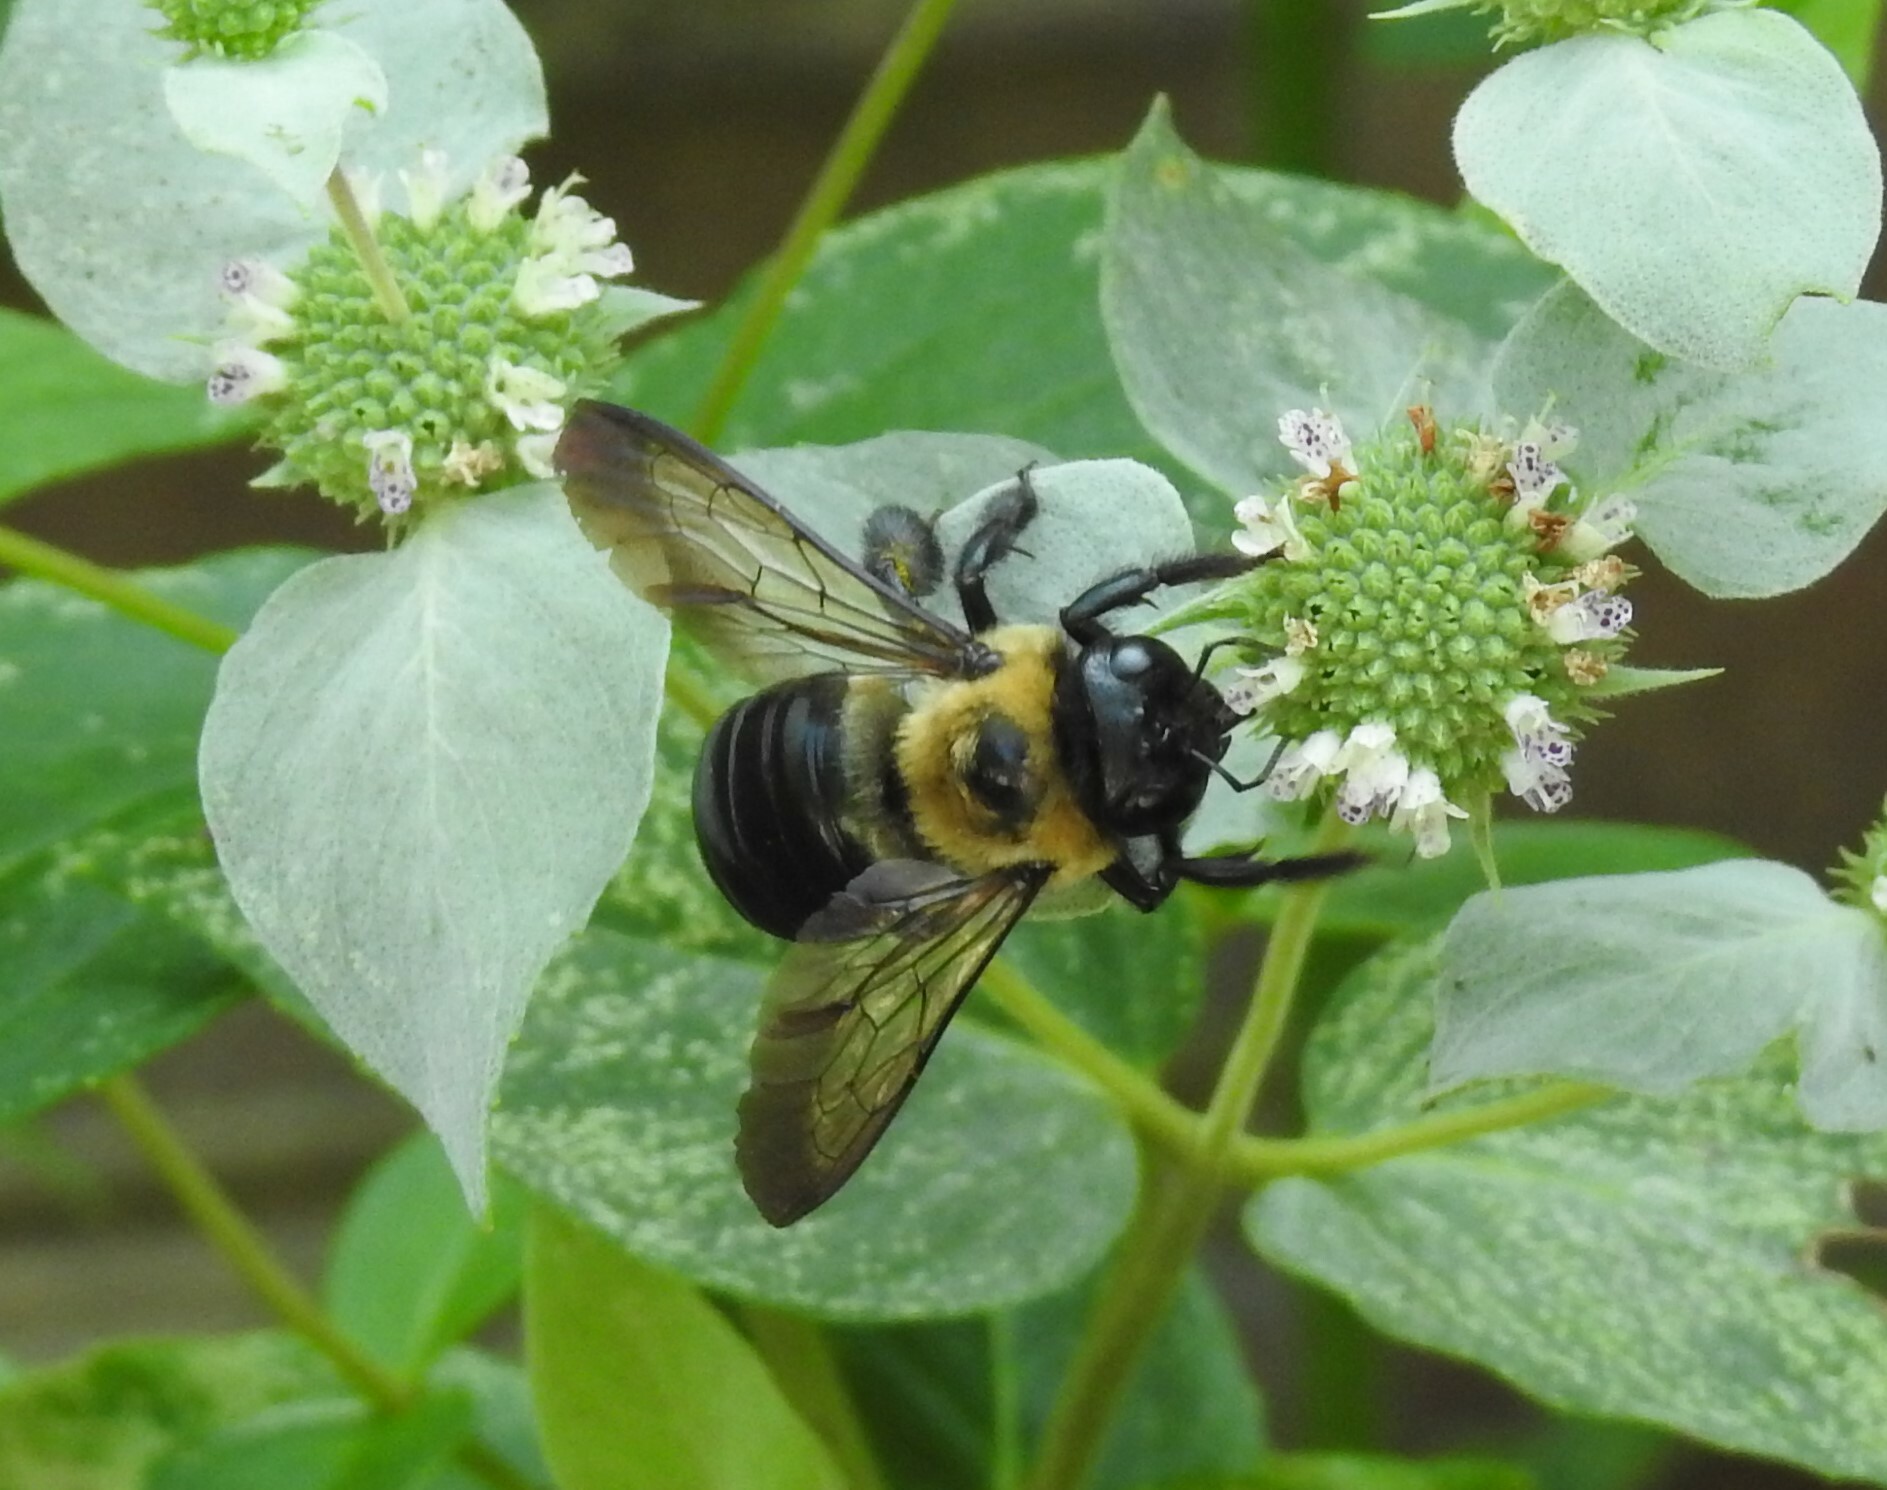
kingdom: Animalia
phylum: Arthropoda
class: Insecta
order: Hymenoptera
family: Apidae
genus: Xylocopa
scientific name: Xylocopa virginica
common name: Carpenter bee
